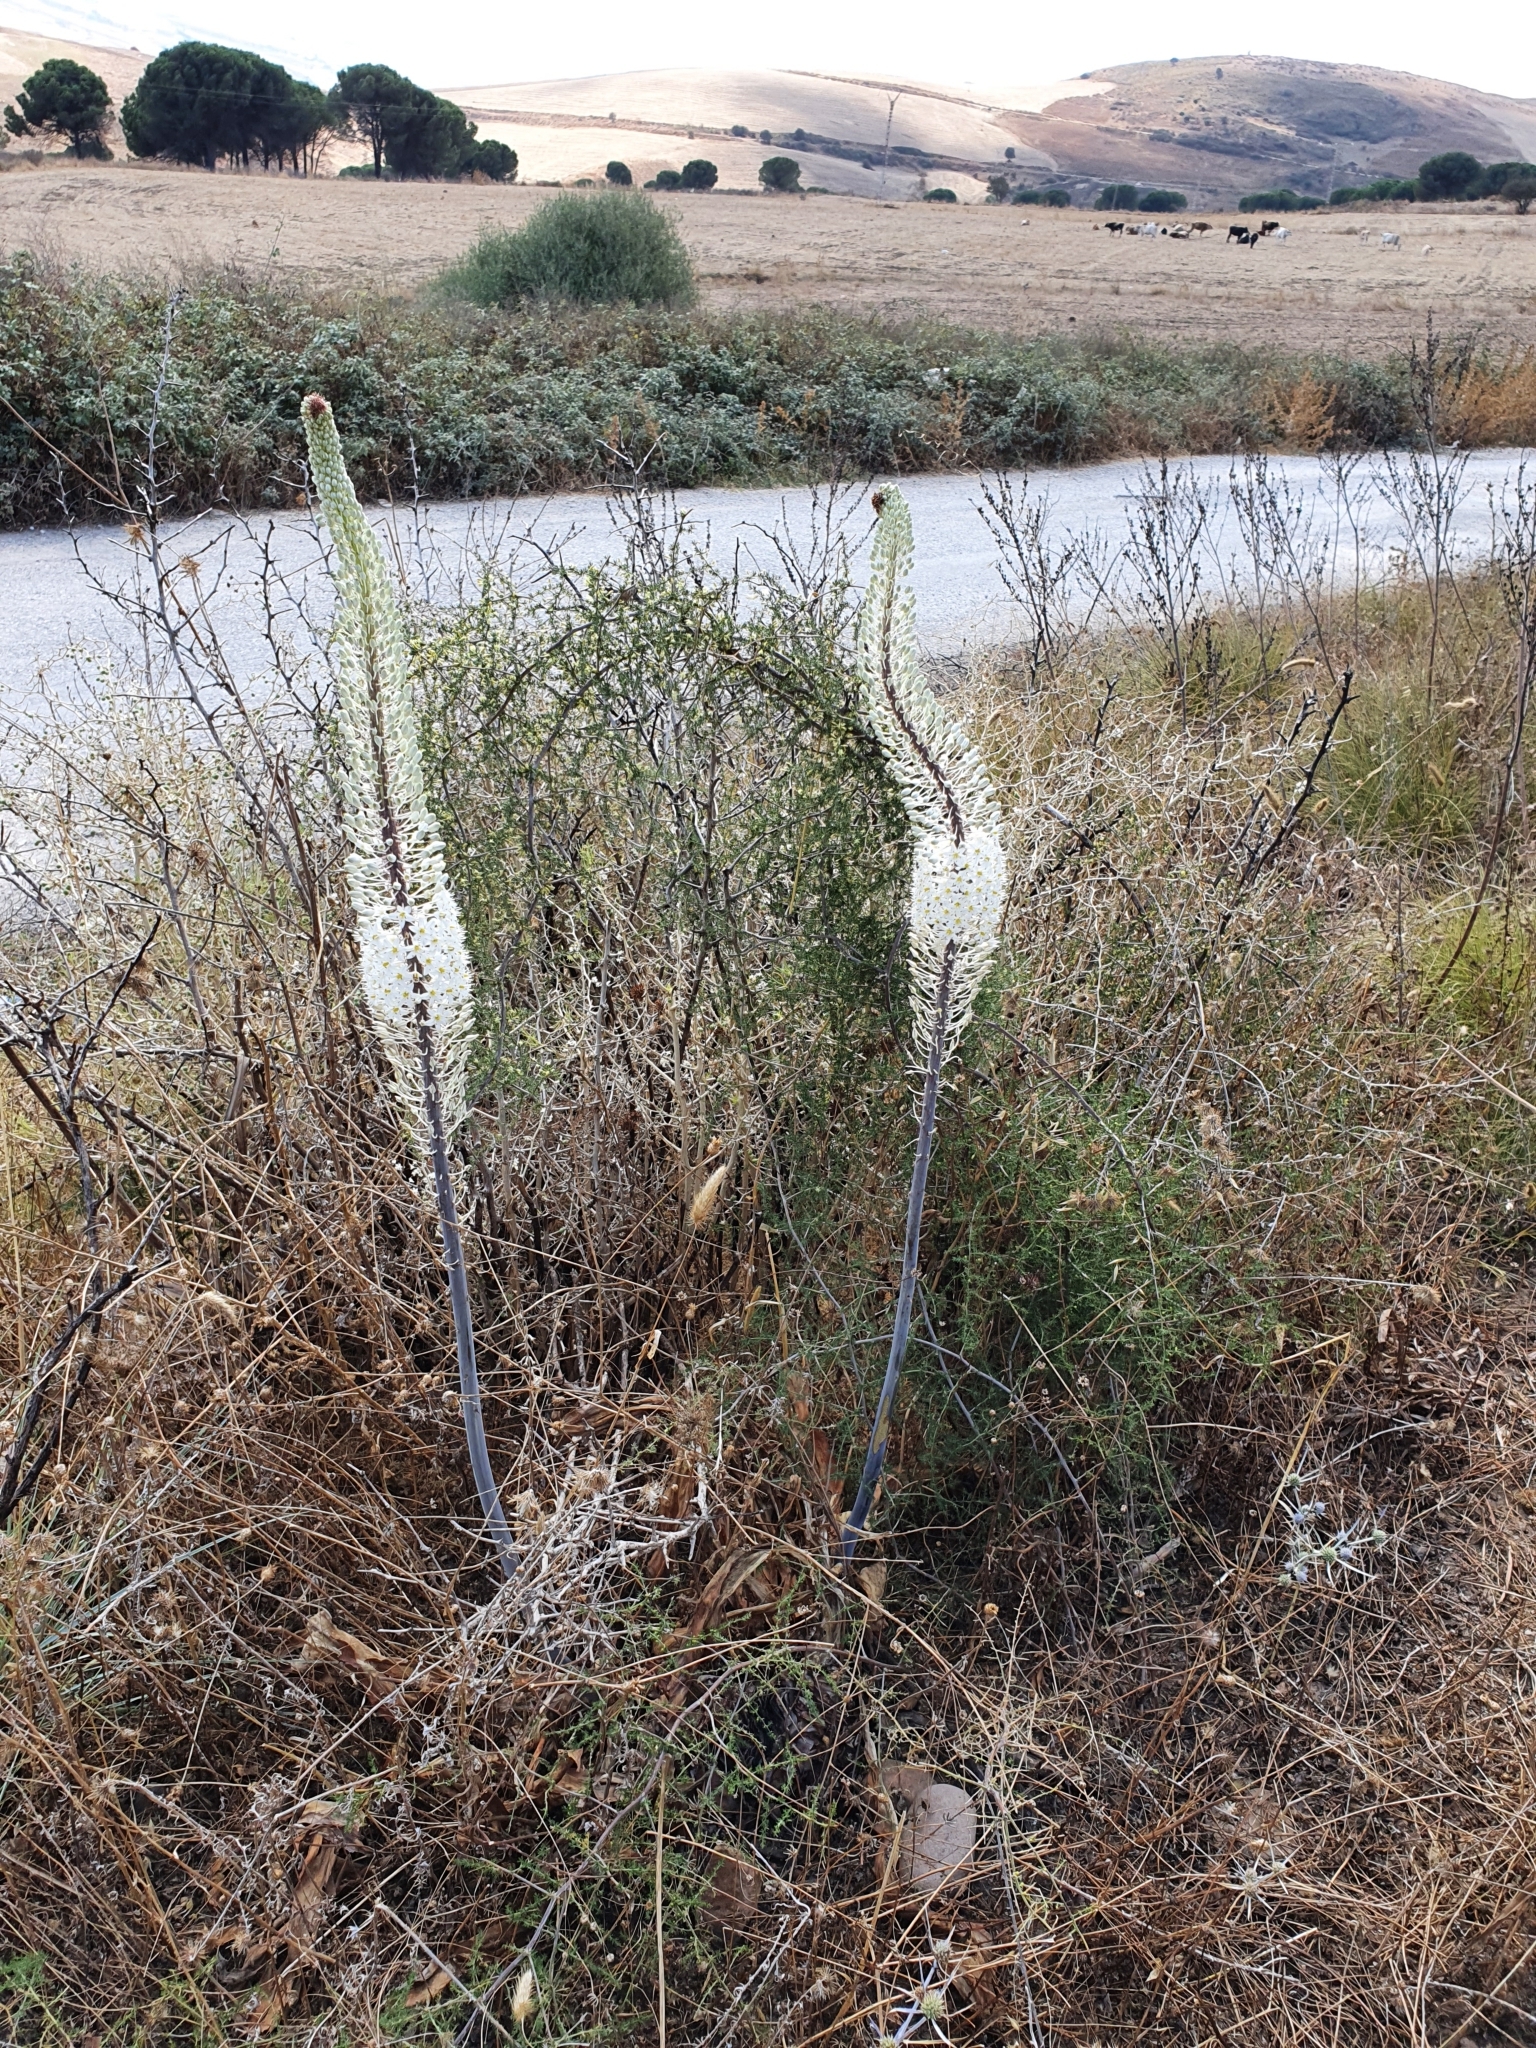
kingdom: Plantae
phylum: Tracheophyta
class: Liliopsida
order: Asparagales
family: Asparagaceae
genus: Drimia
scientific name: Drimia numidica
